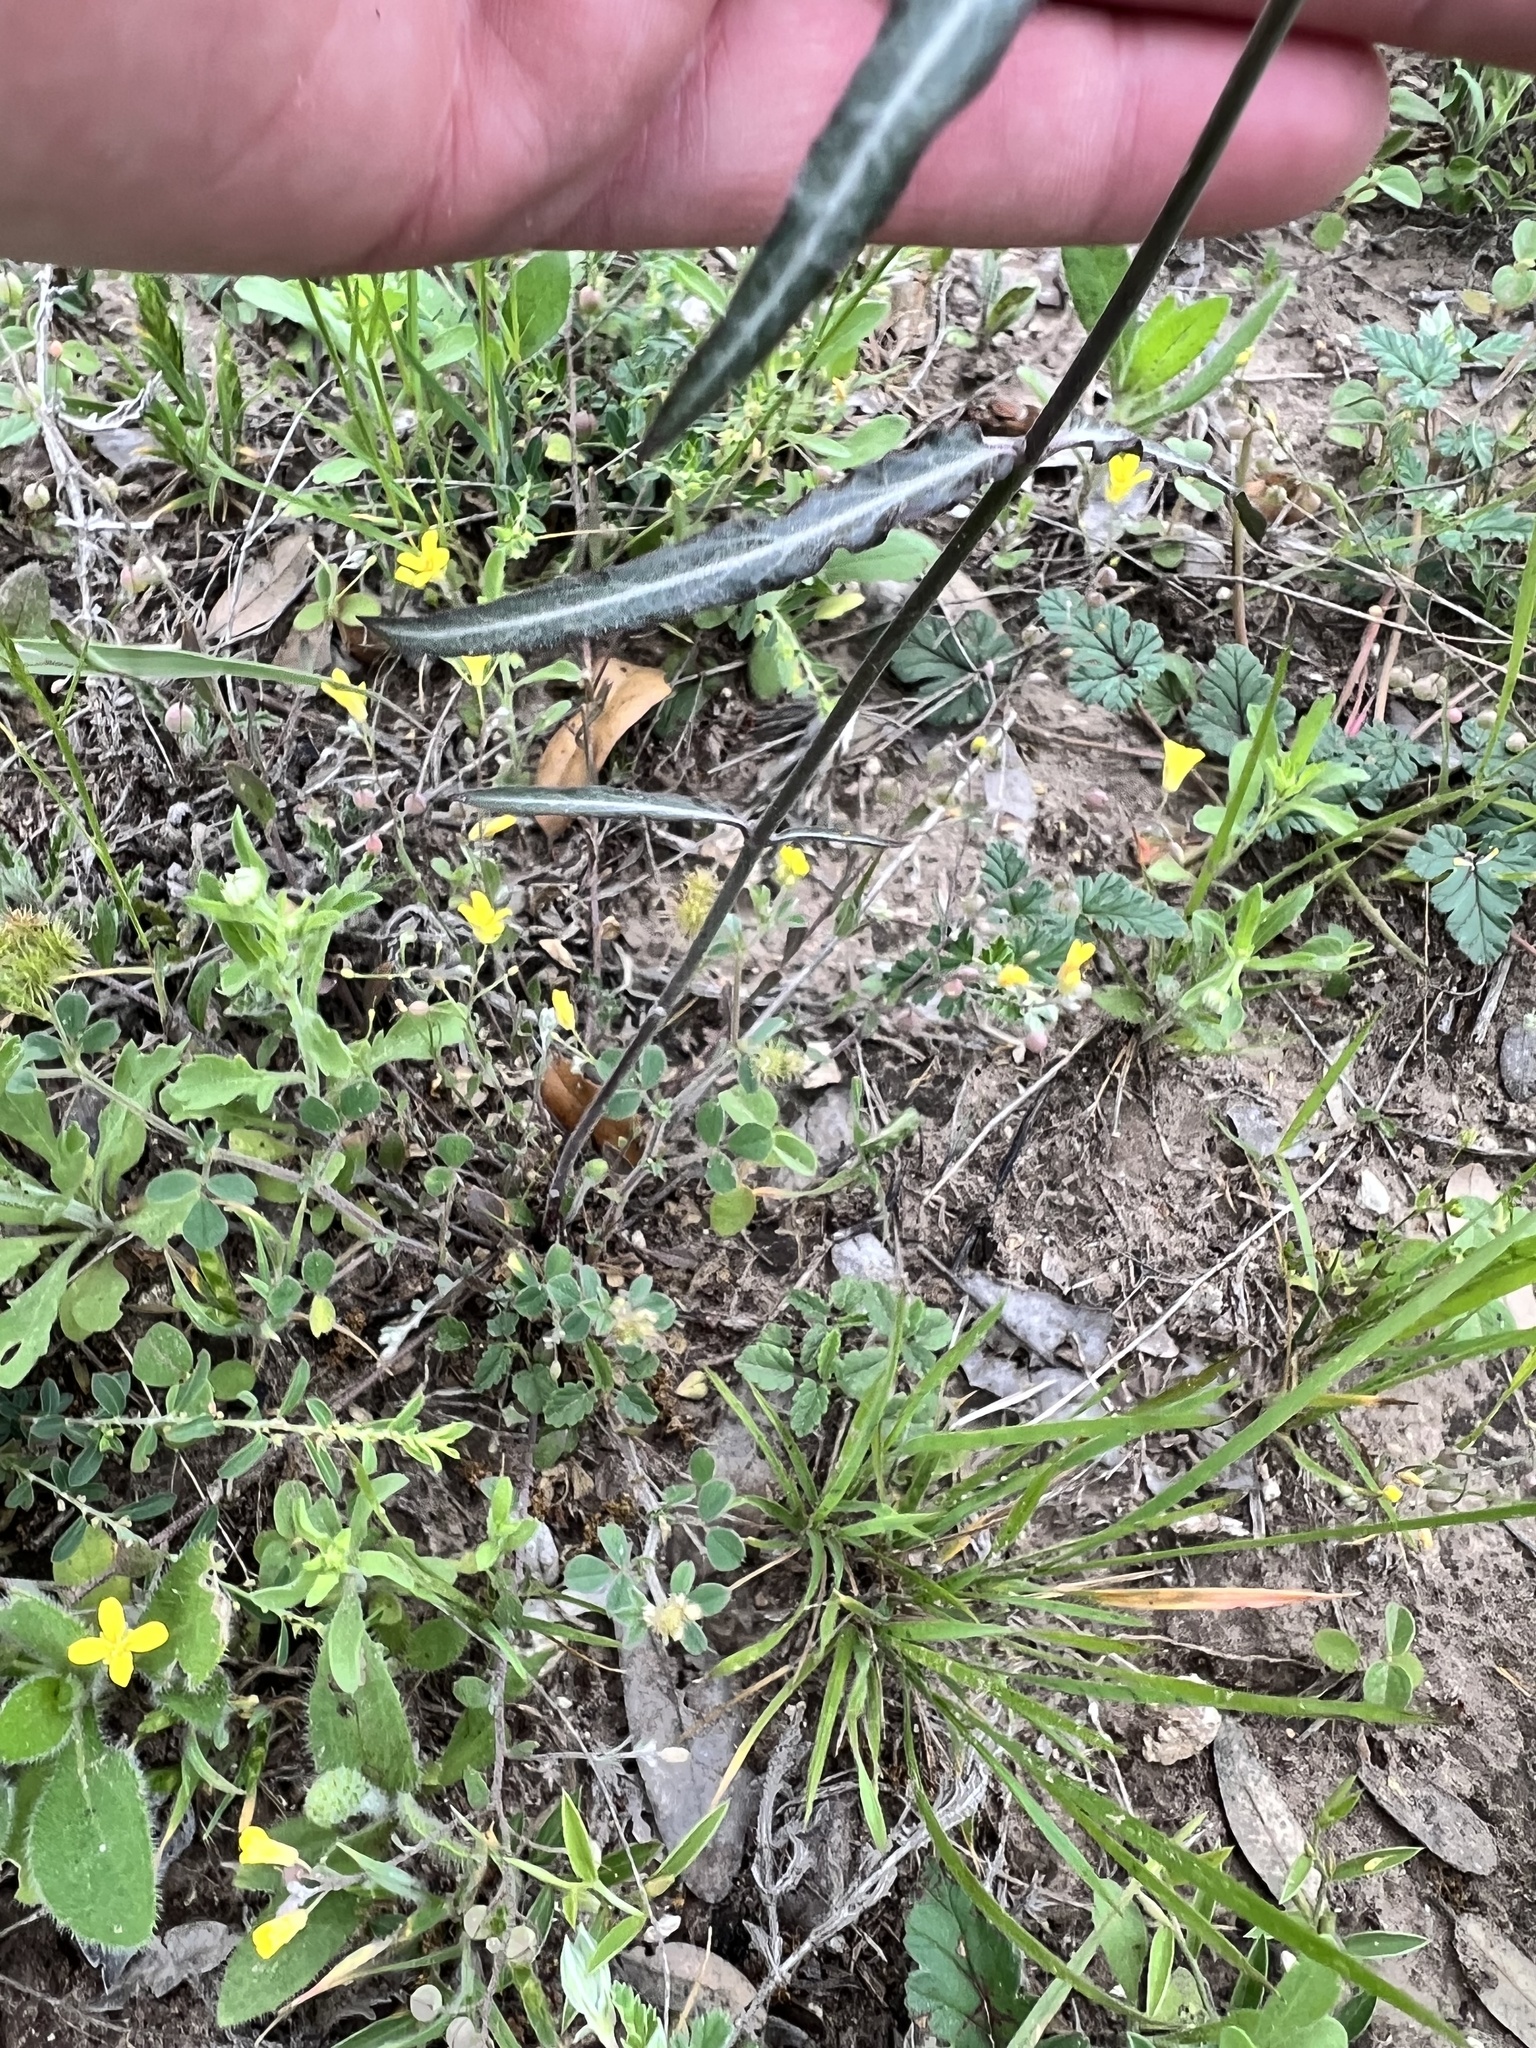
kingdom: Plantae
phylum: Tracheophyta
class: Magnoliopsida
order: Gentianales
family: Apocynaceae
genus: Funastrum
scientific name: Funastrum crispum
